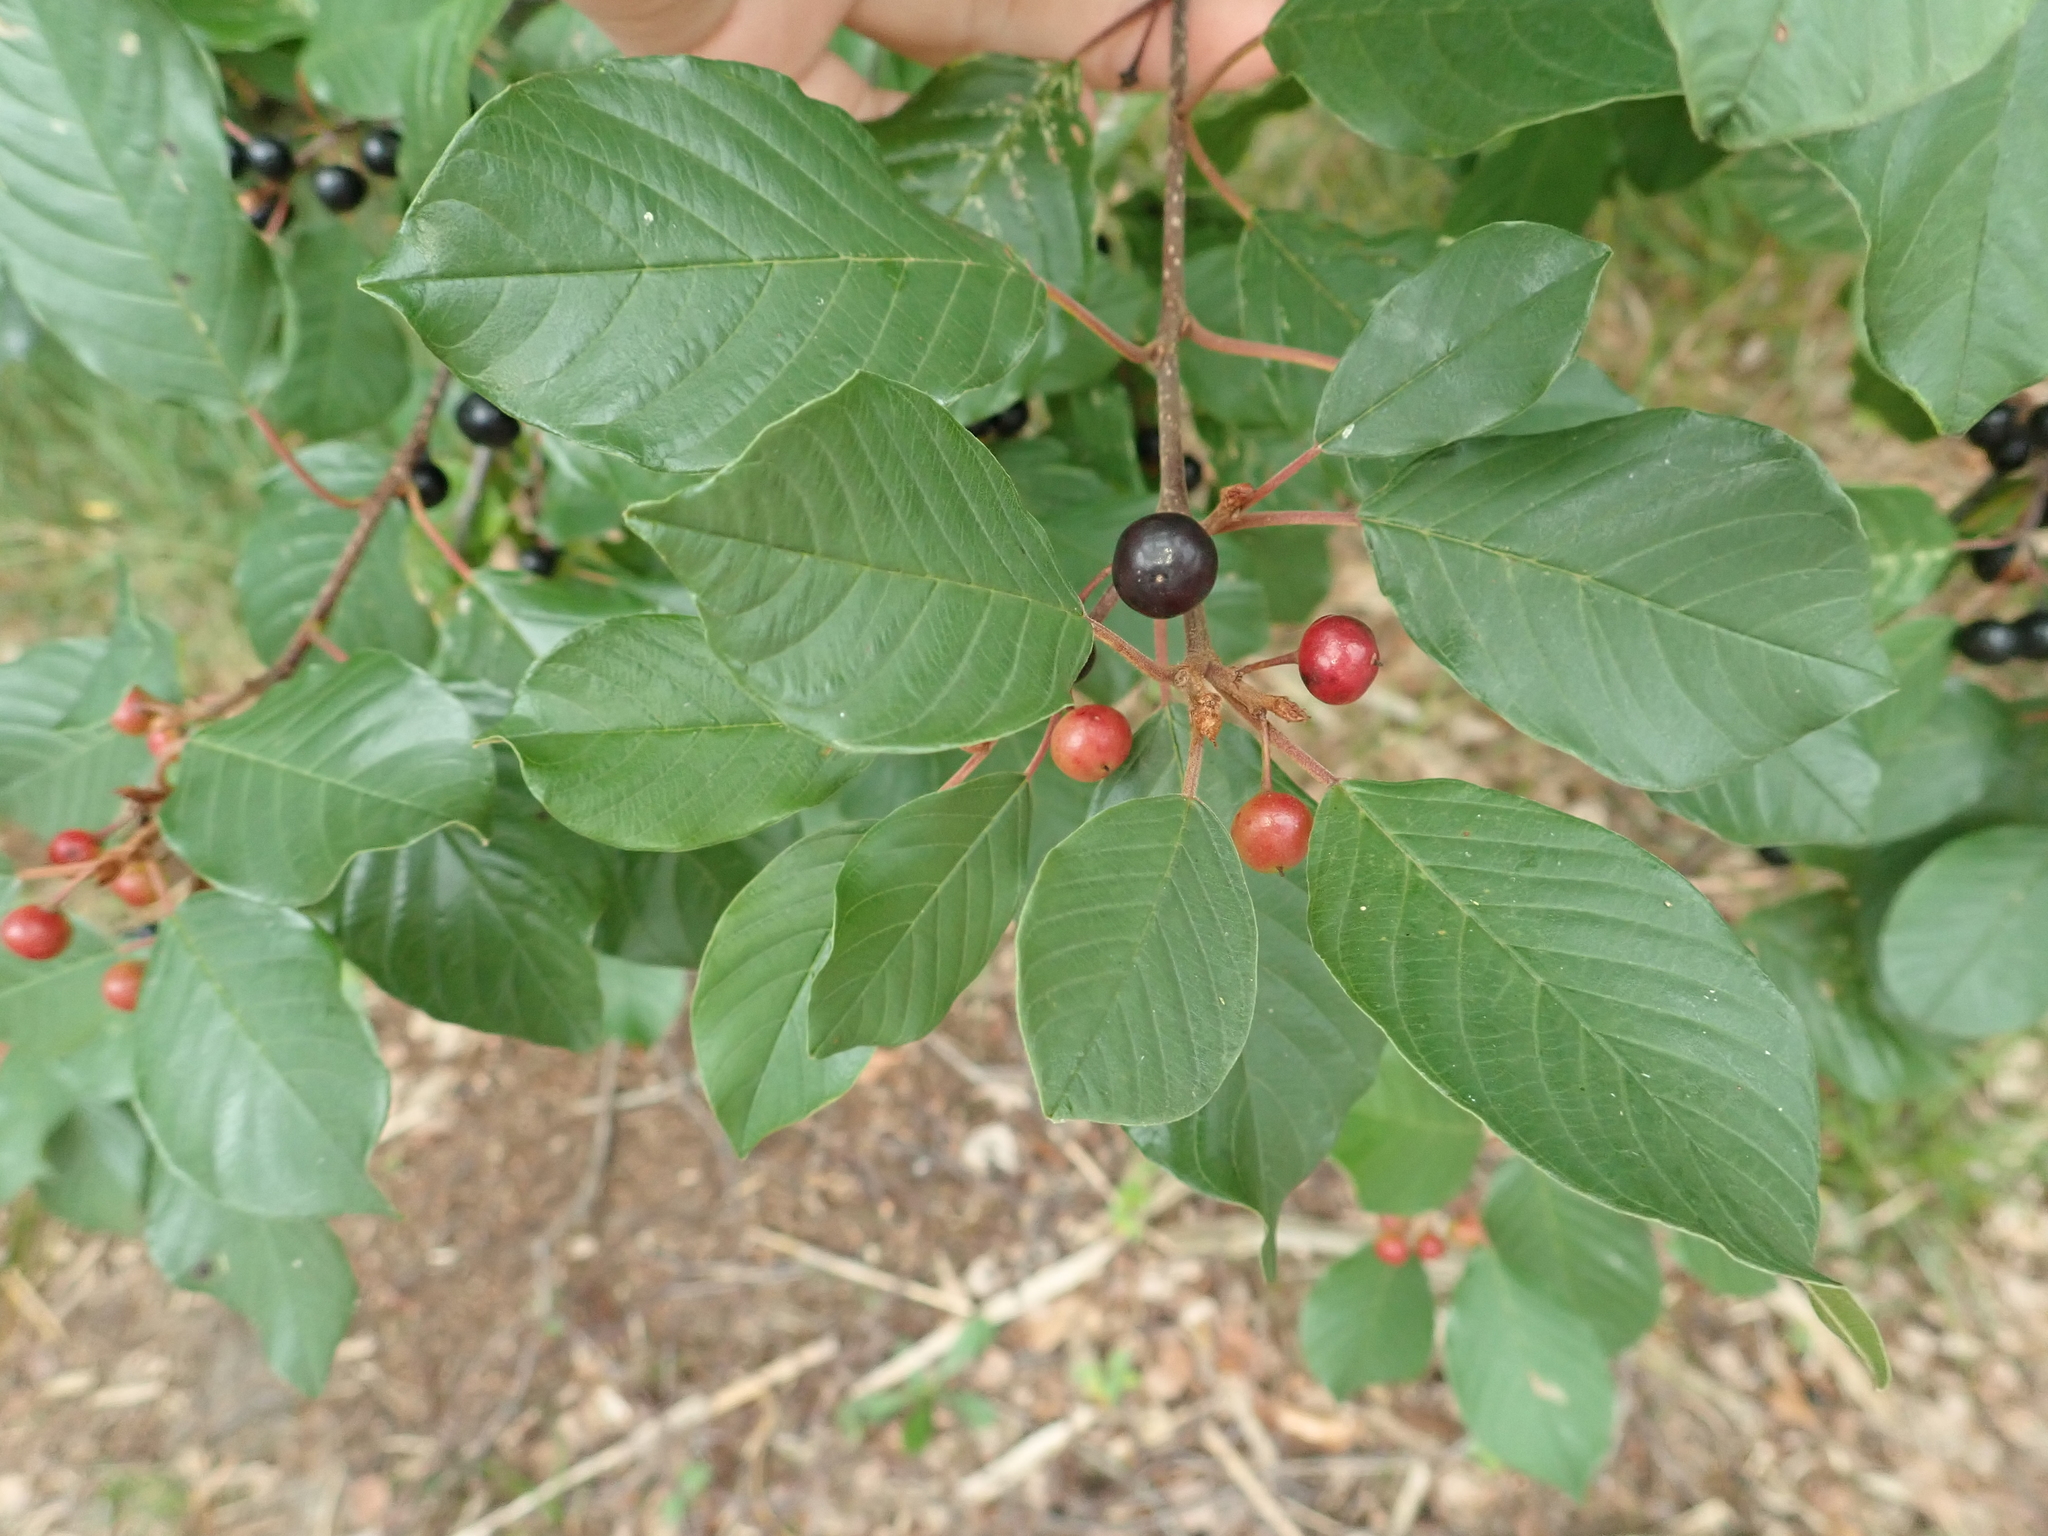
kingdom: Plantae
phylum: Tracheophyta
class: Magnoliopsida
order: Rosales
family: Rhamnaceae
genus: Frangula
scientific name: Frangula alnus
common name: Alder buckthorn
